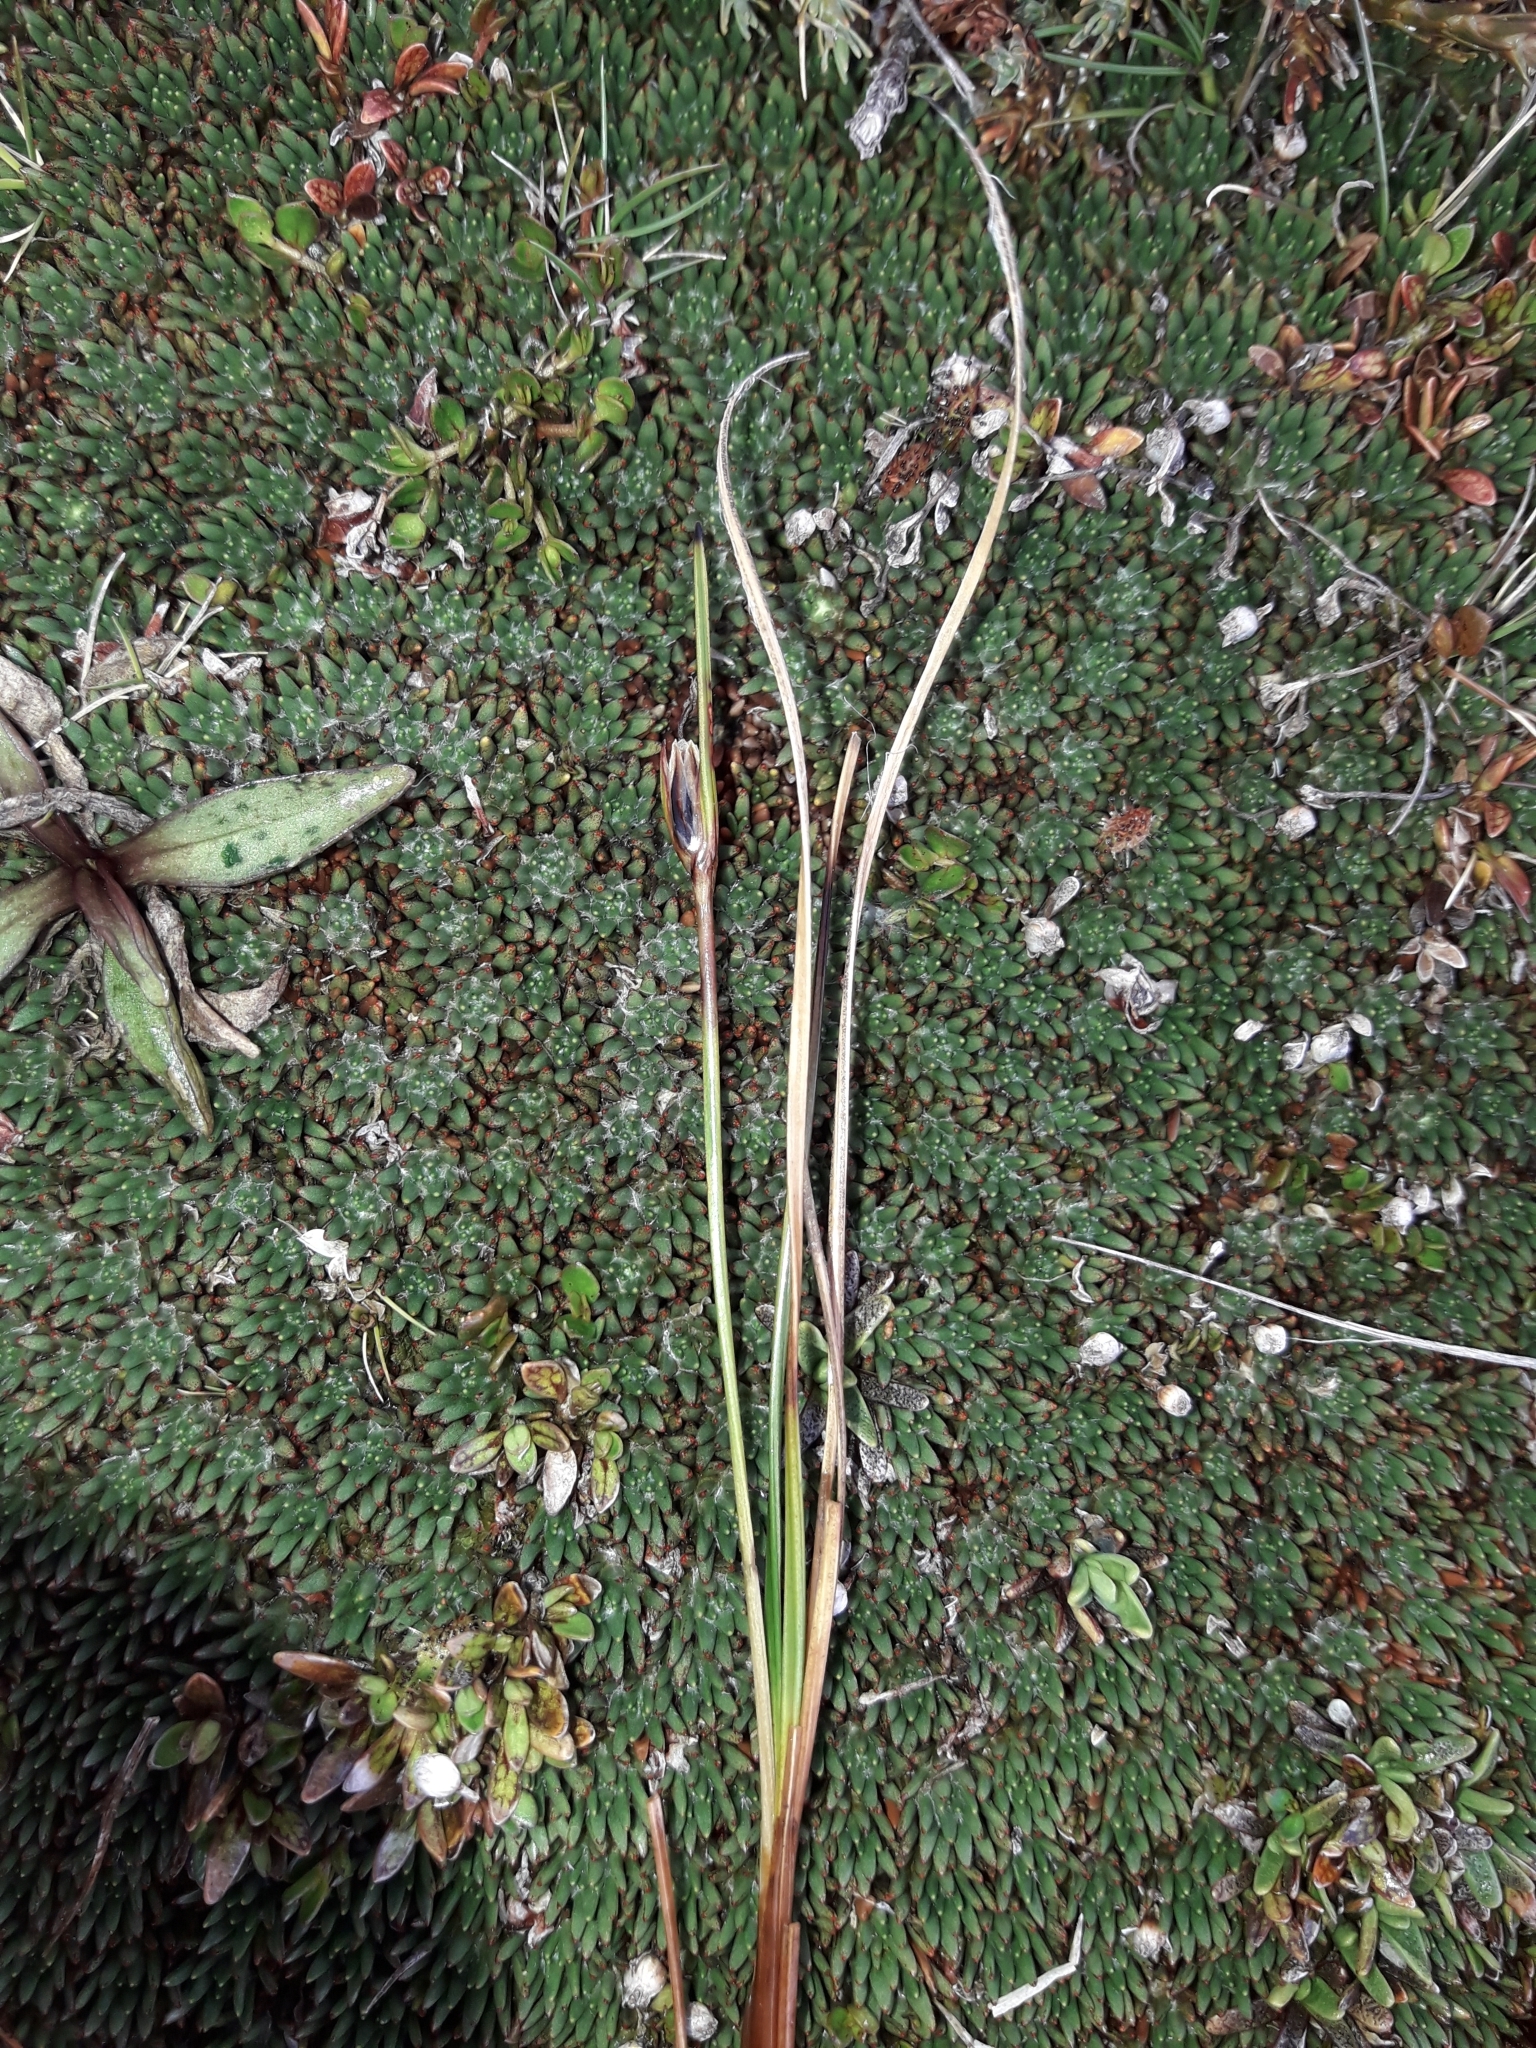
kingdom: Plantae
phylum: Tracheophyta
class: Liliopsida
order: Poales
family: Juncaceae
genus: Rostkovia
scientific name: Rostkovia magellanica
